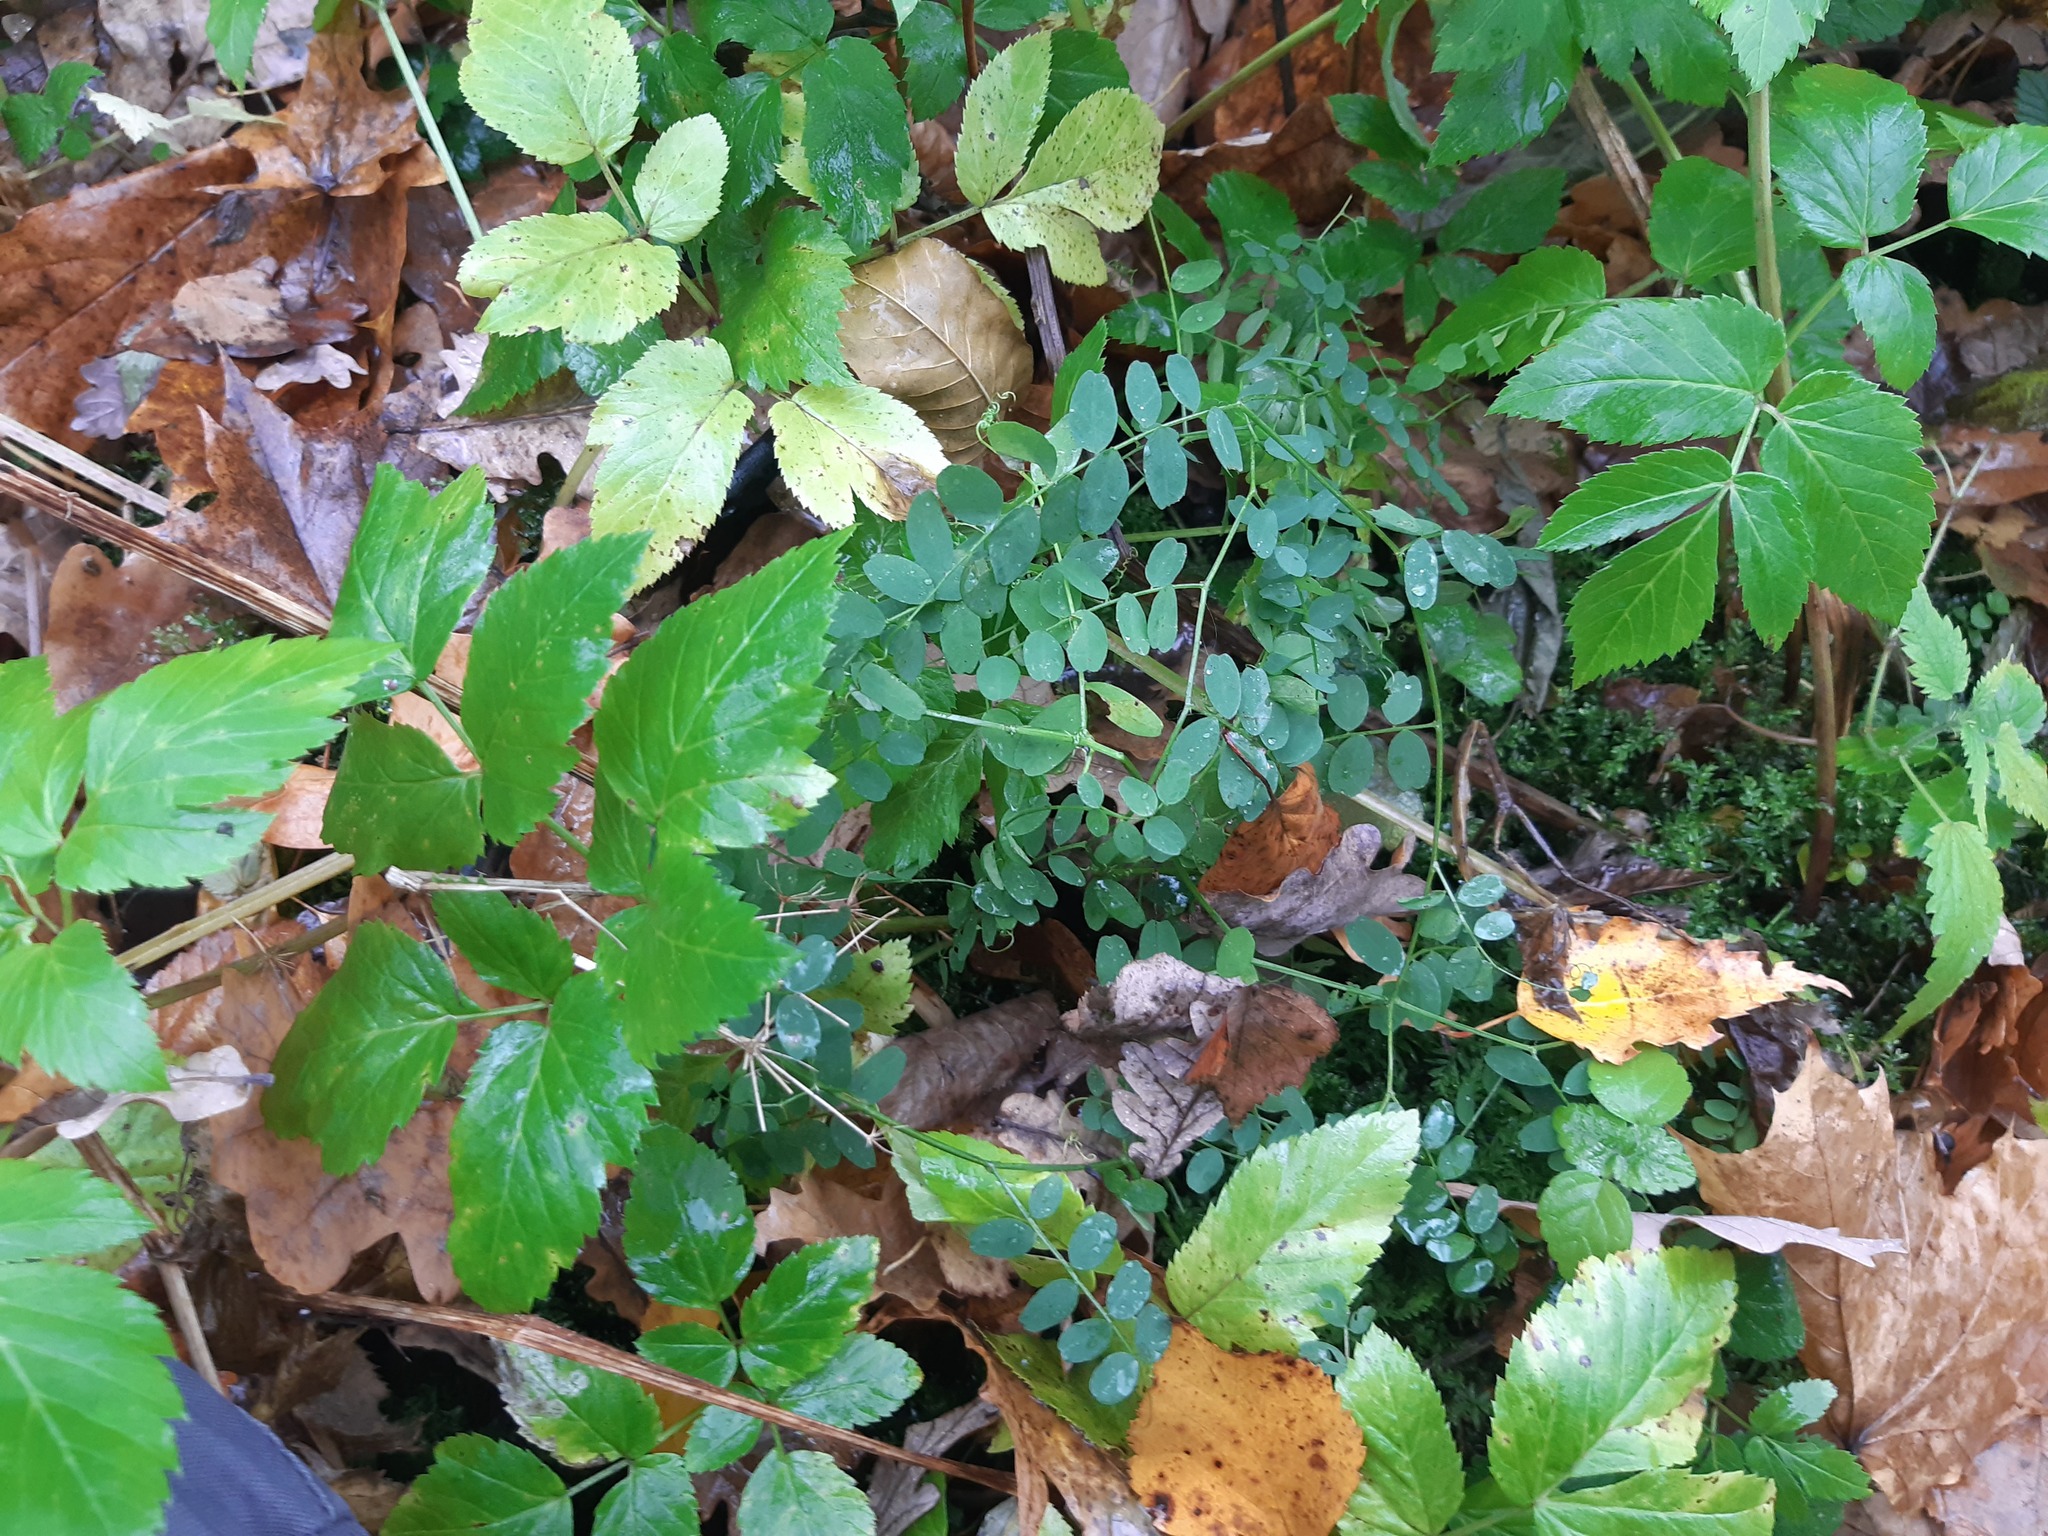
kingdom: Plantae
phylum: Tracheophyta
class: Magnoliopsida
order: Fabales
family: Fabaceae
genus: Vicia
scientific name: Vicia sylvatica
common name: Wood vetch
